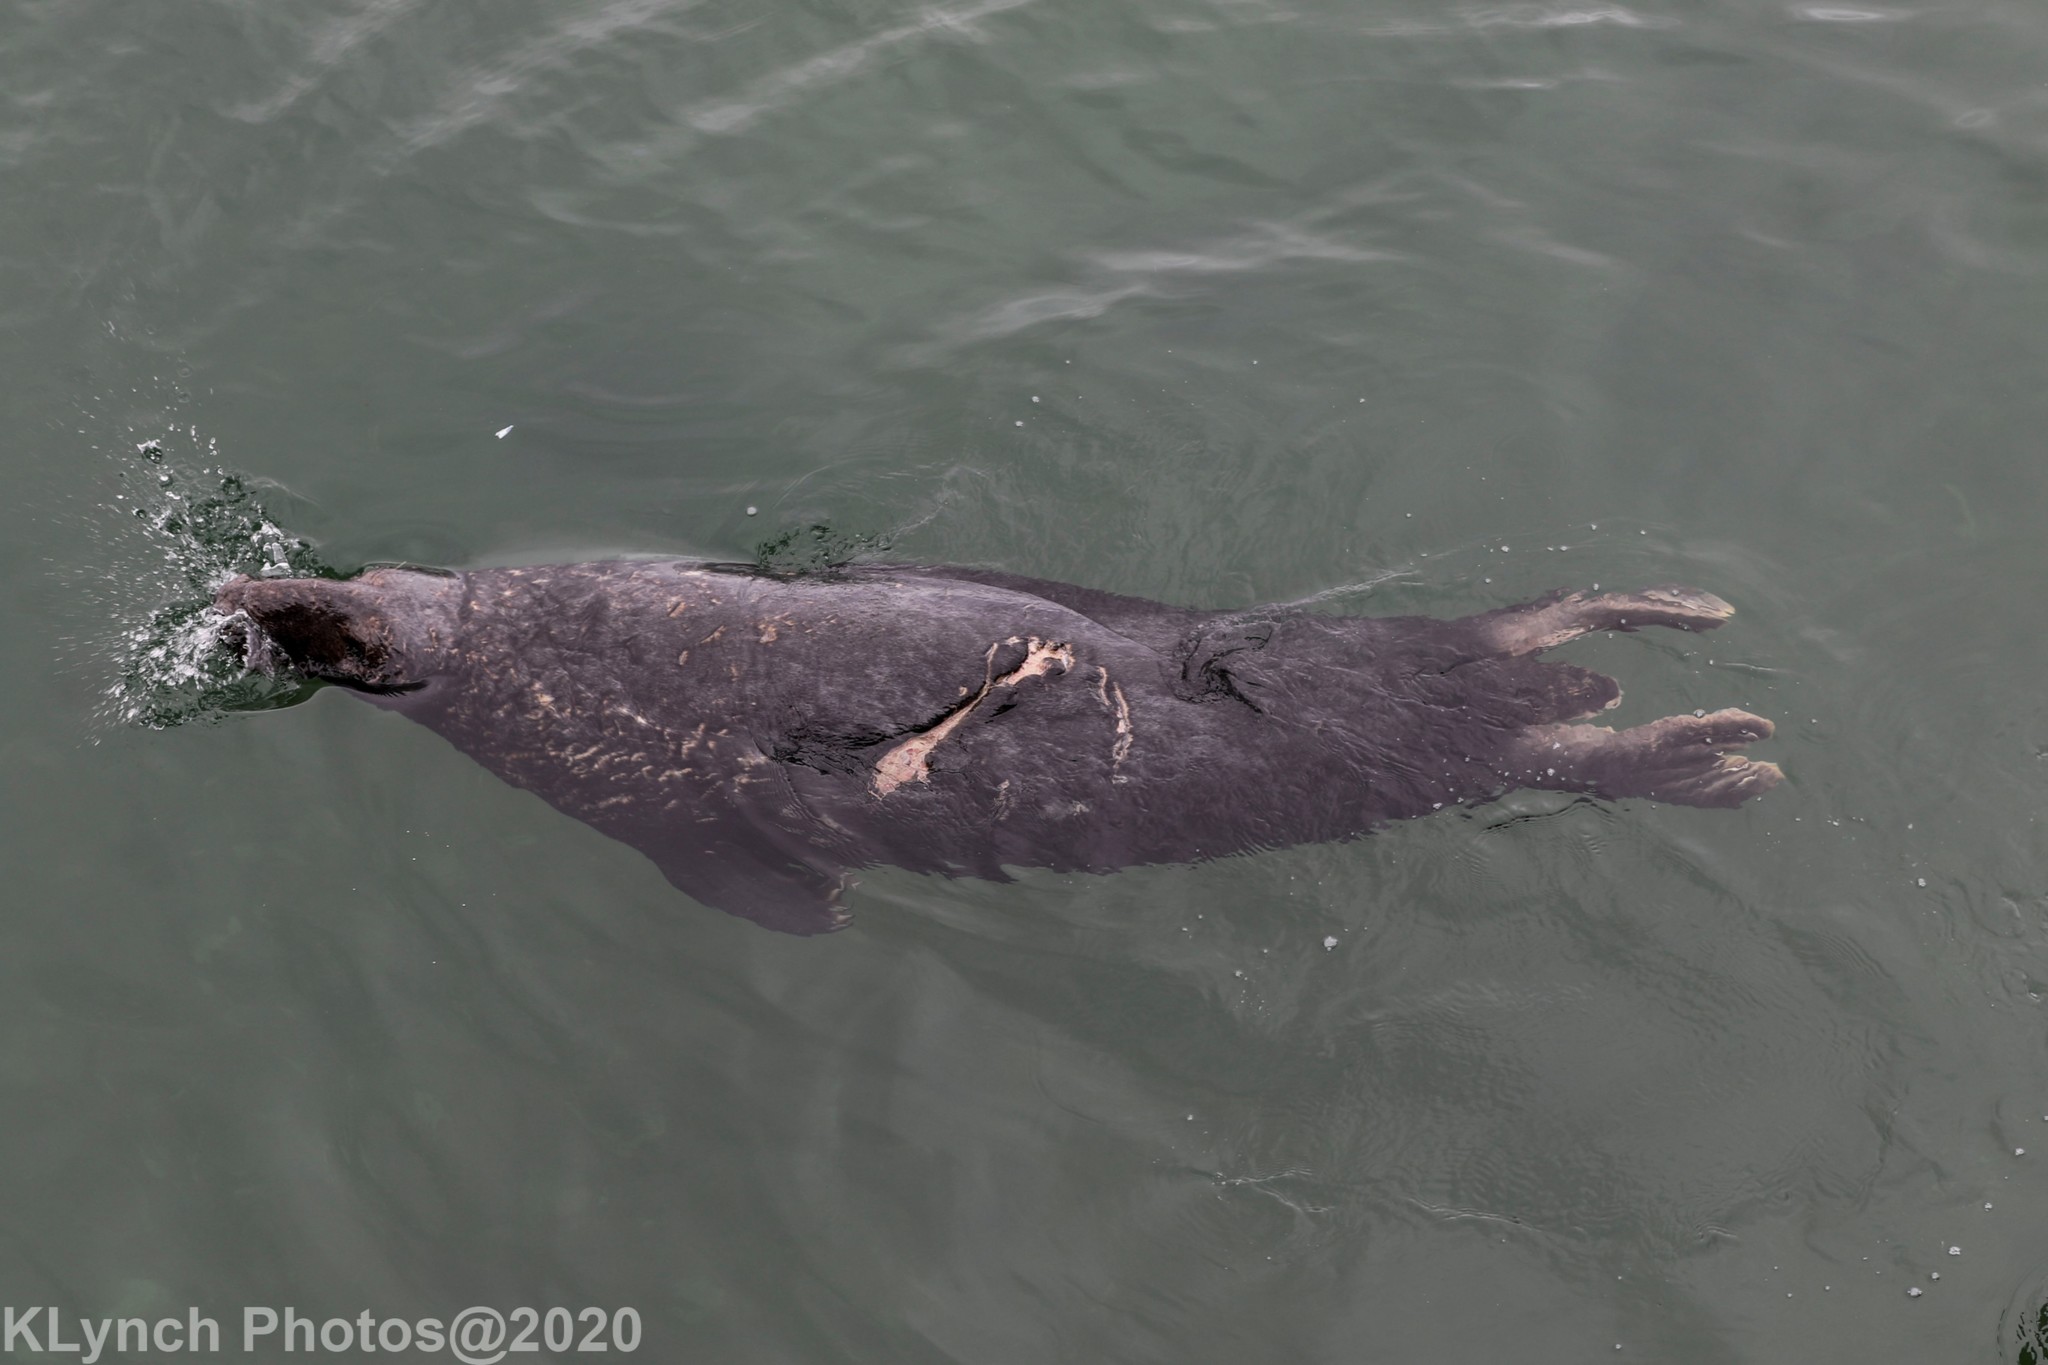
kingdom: Animalia
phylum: Chordata
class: Mammalia
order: Carnivora
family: Phocidae
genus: Halichoerus
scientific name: Halichoerus grypus
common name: Grey seal
